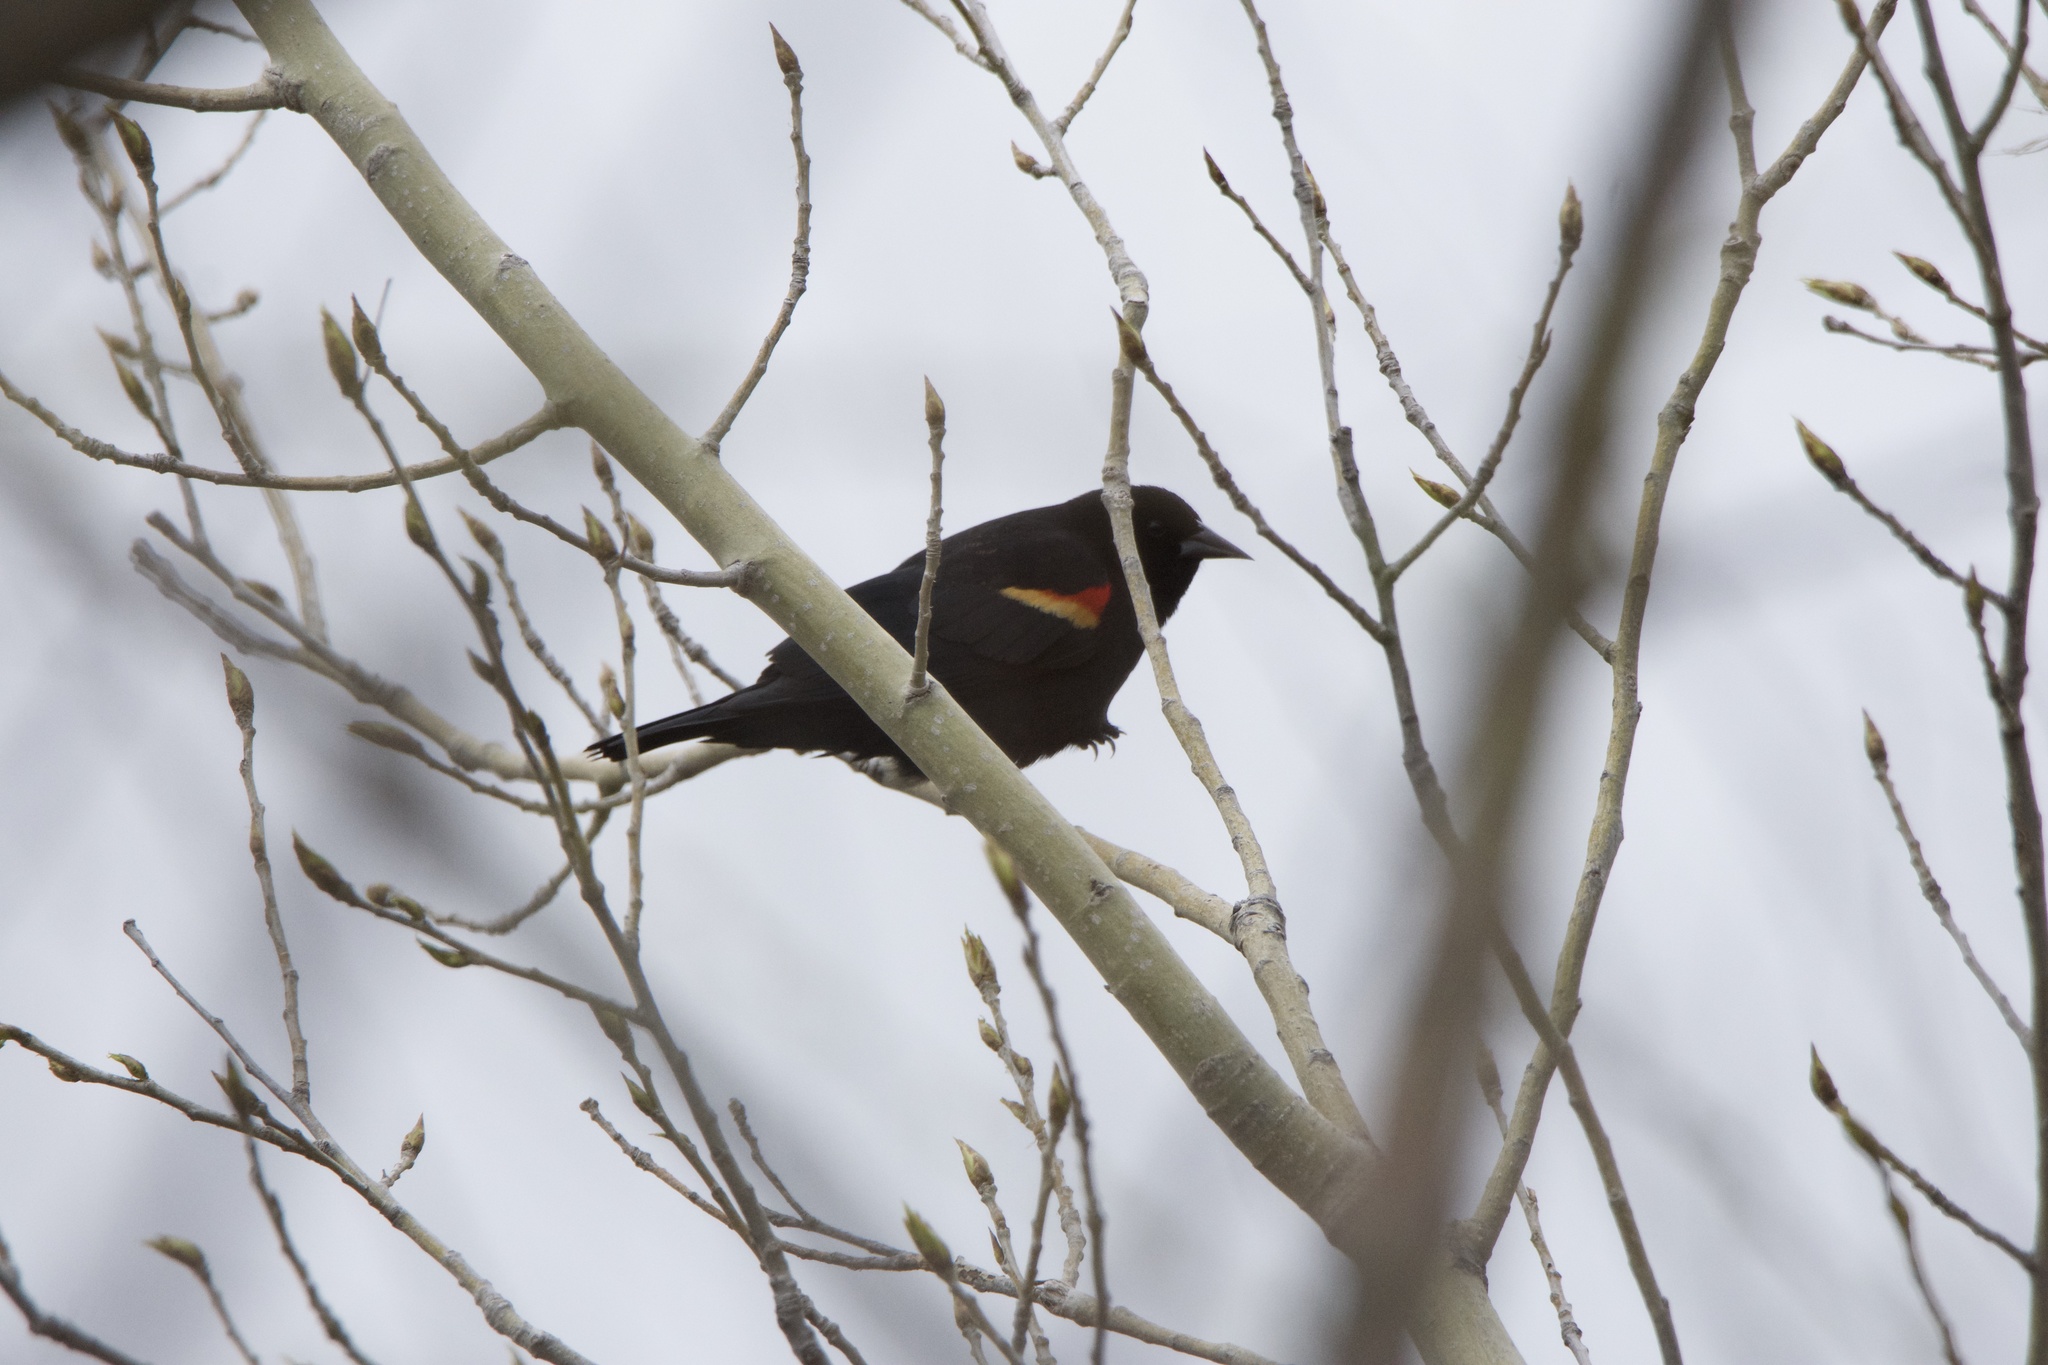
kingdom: Animalia
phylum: Chordata
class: Aves
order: Passeriformes
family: Icteridae
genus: Agelaius
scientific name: Agelaius phoeniceus
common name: Red-winged blackbird
